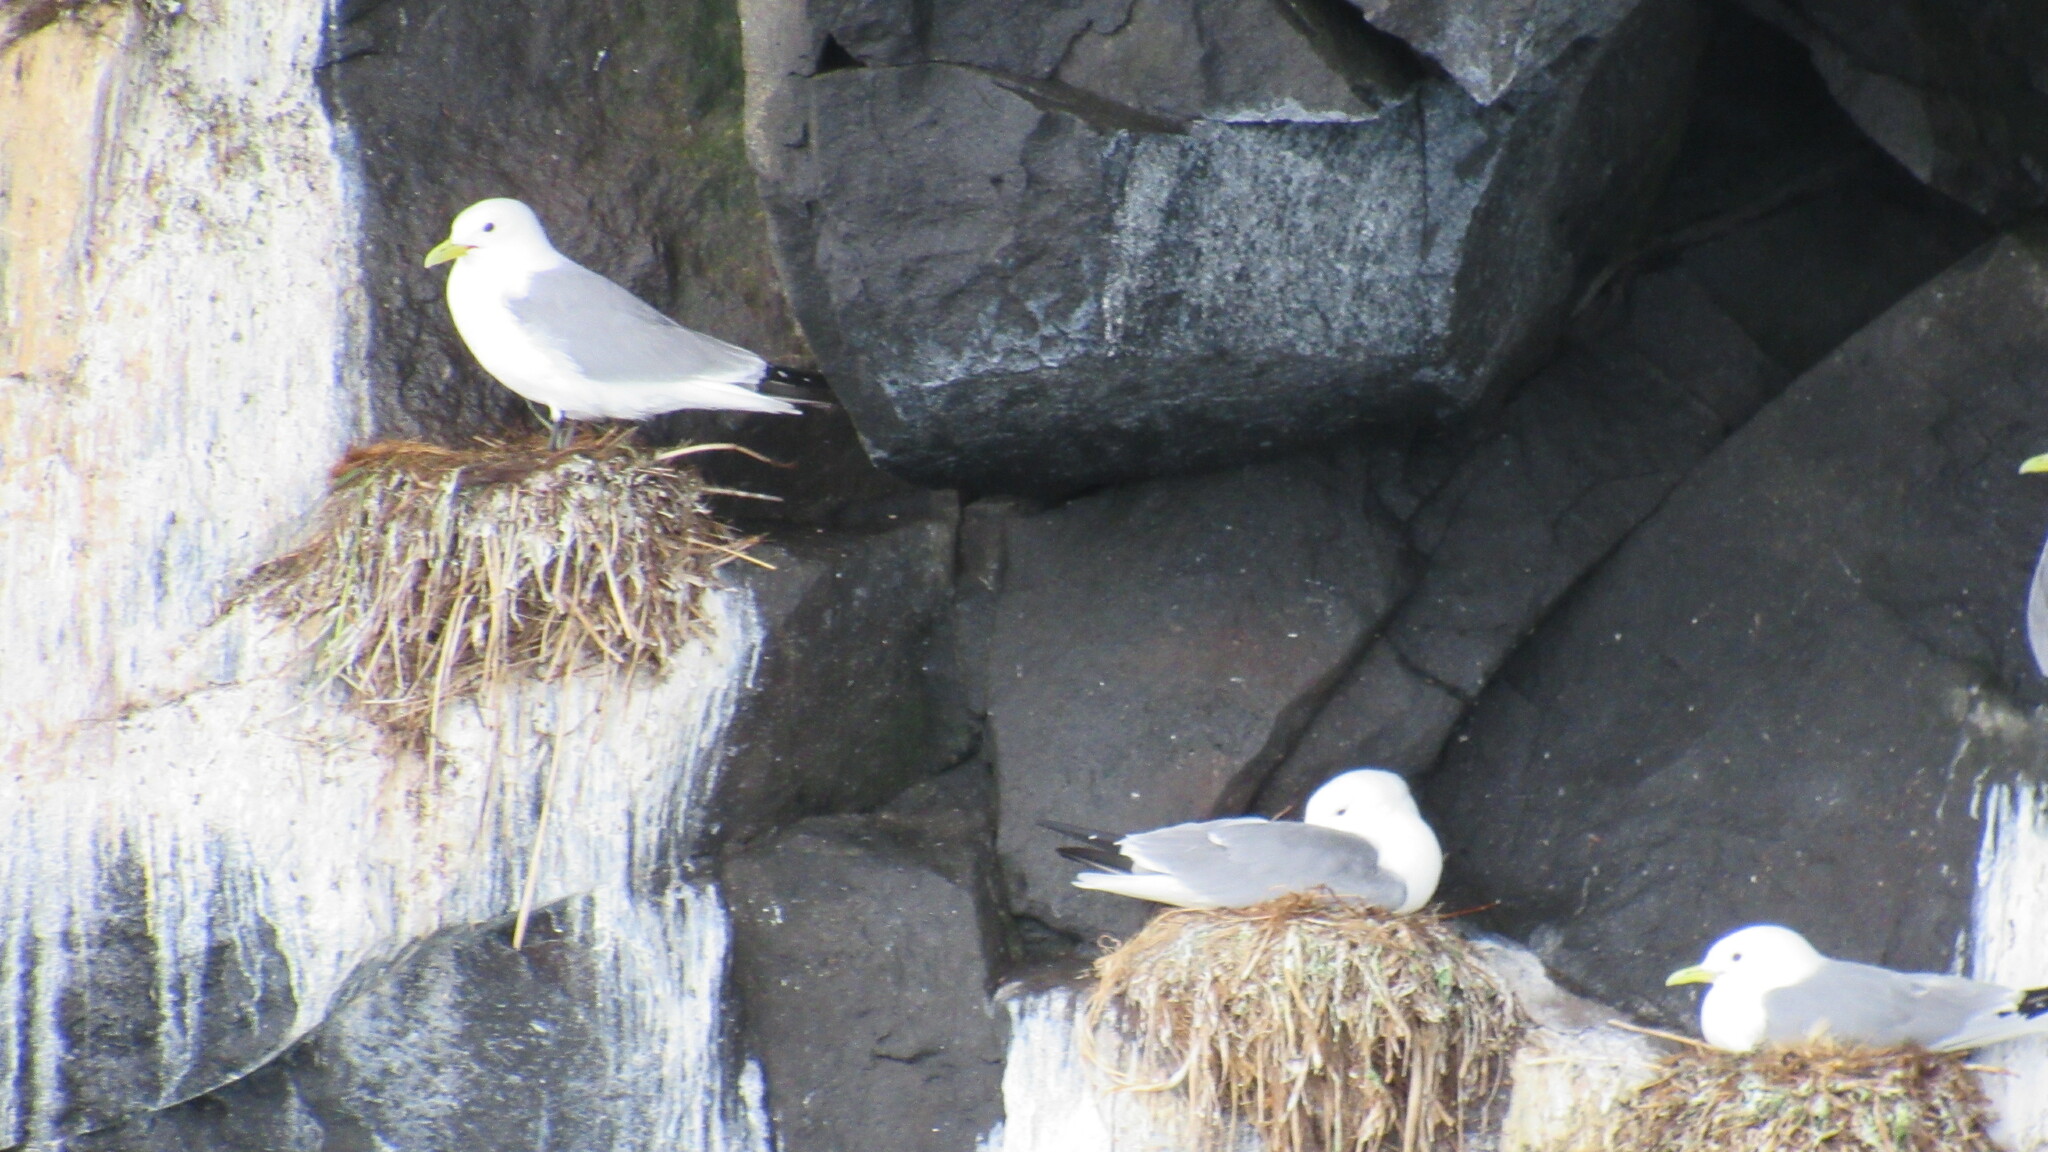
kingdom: Animalia
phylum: Chordata
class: Aves
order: Charadriiformes
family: Laridae
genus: Rissa
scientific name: Rissa tridactyla
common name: Black-legged kittiwake
